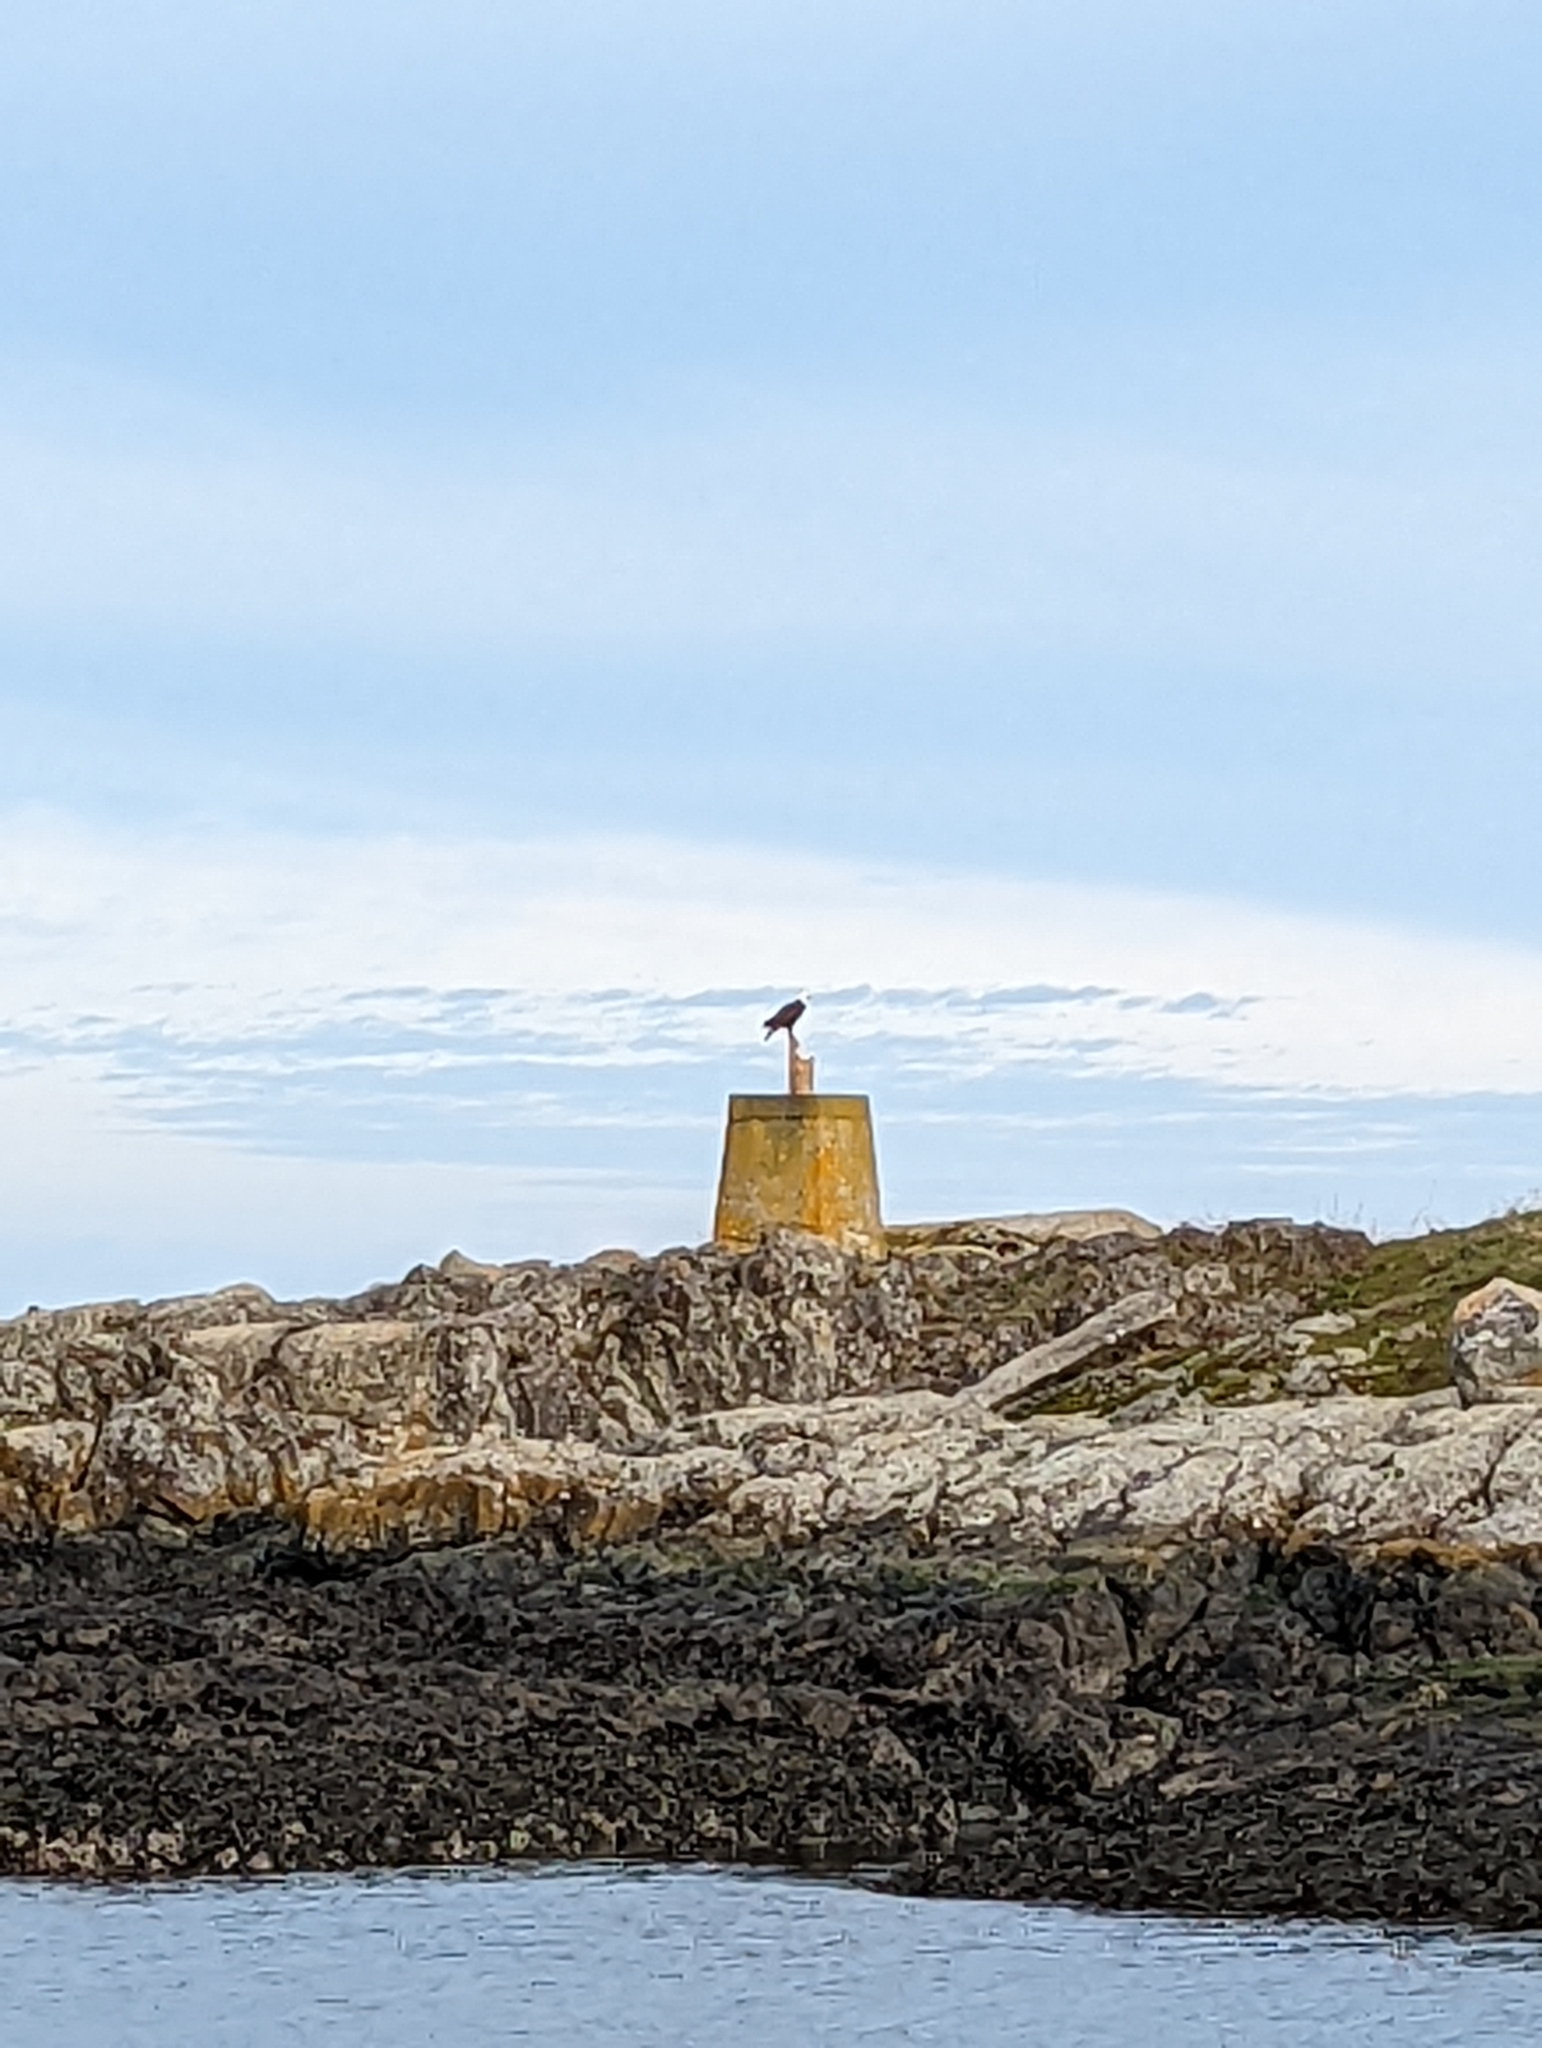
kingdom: Animalia
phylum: Chordata
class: Aves
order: Accipitriformes
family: Accipitridae
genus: Haliaeetus
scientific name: Haliaeetus leucocephalus
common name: Bald eagle
